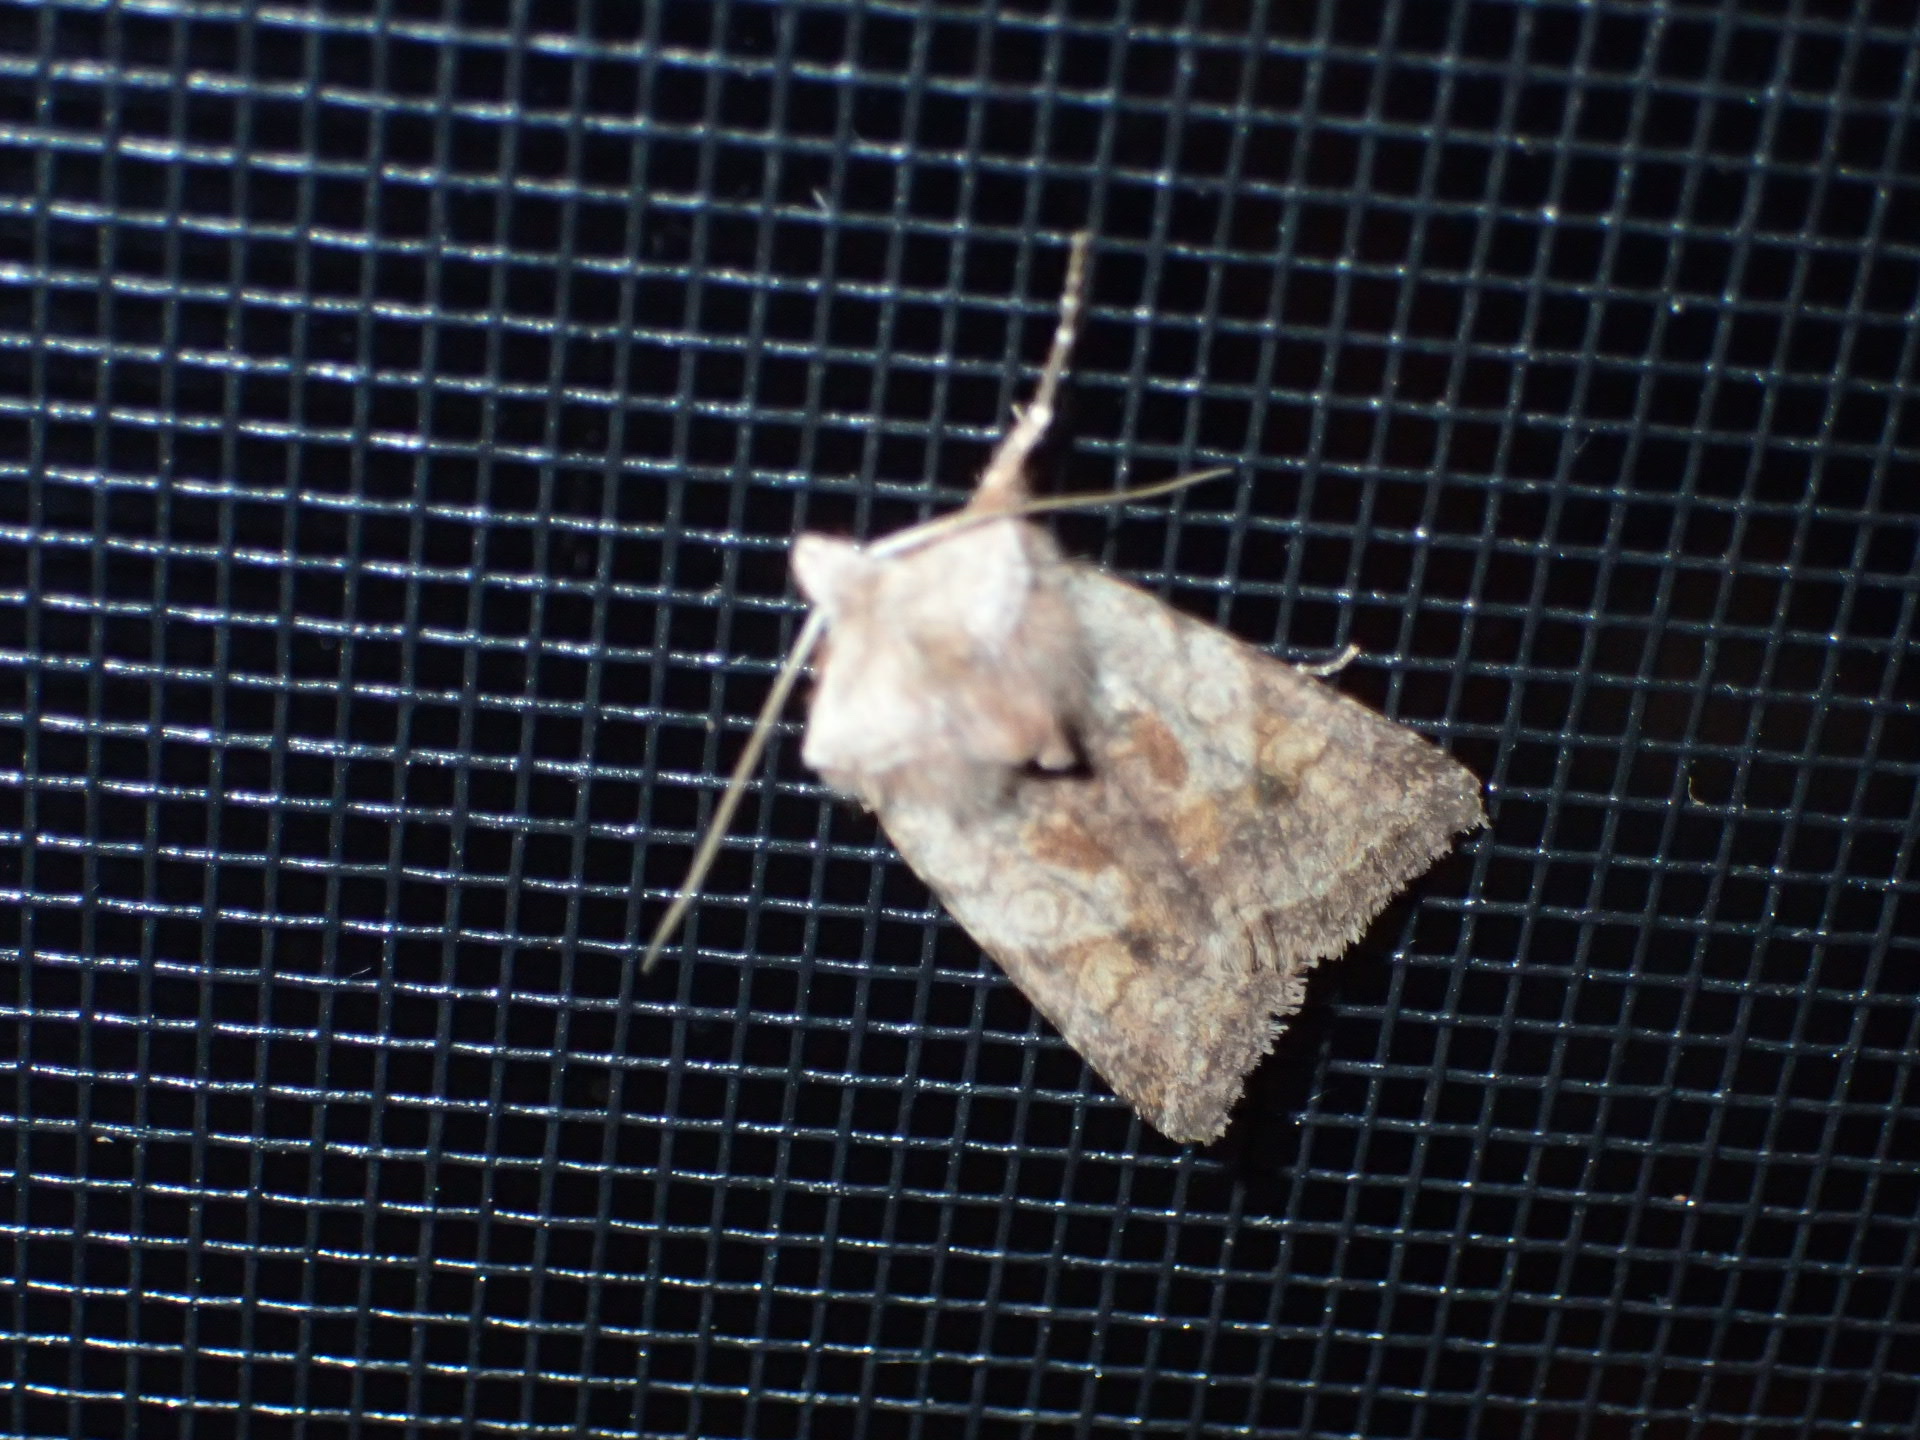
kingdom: Animalia
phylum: Arthropoda
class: Insecta
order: Lepidoptera
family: Noctuidae
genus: Cerastis
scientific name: Cerastis salicarum
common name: Willow dart
